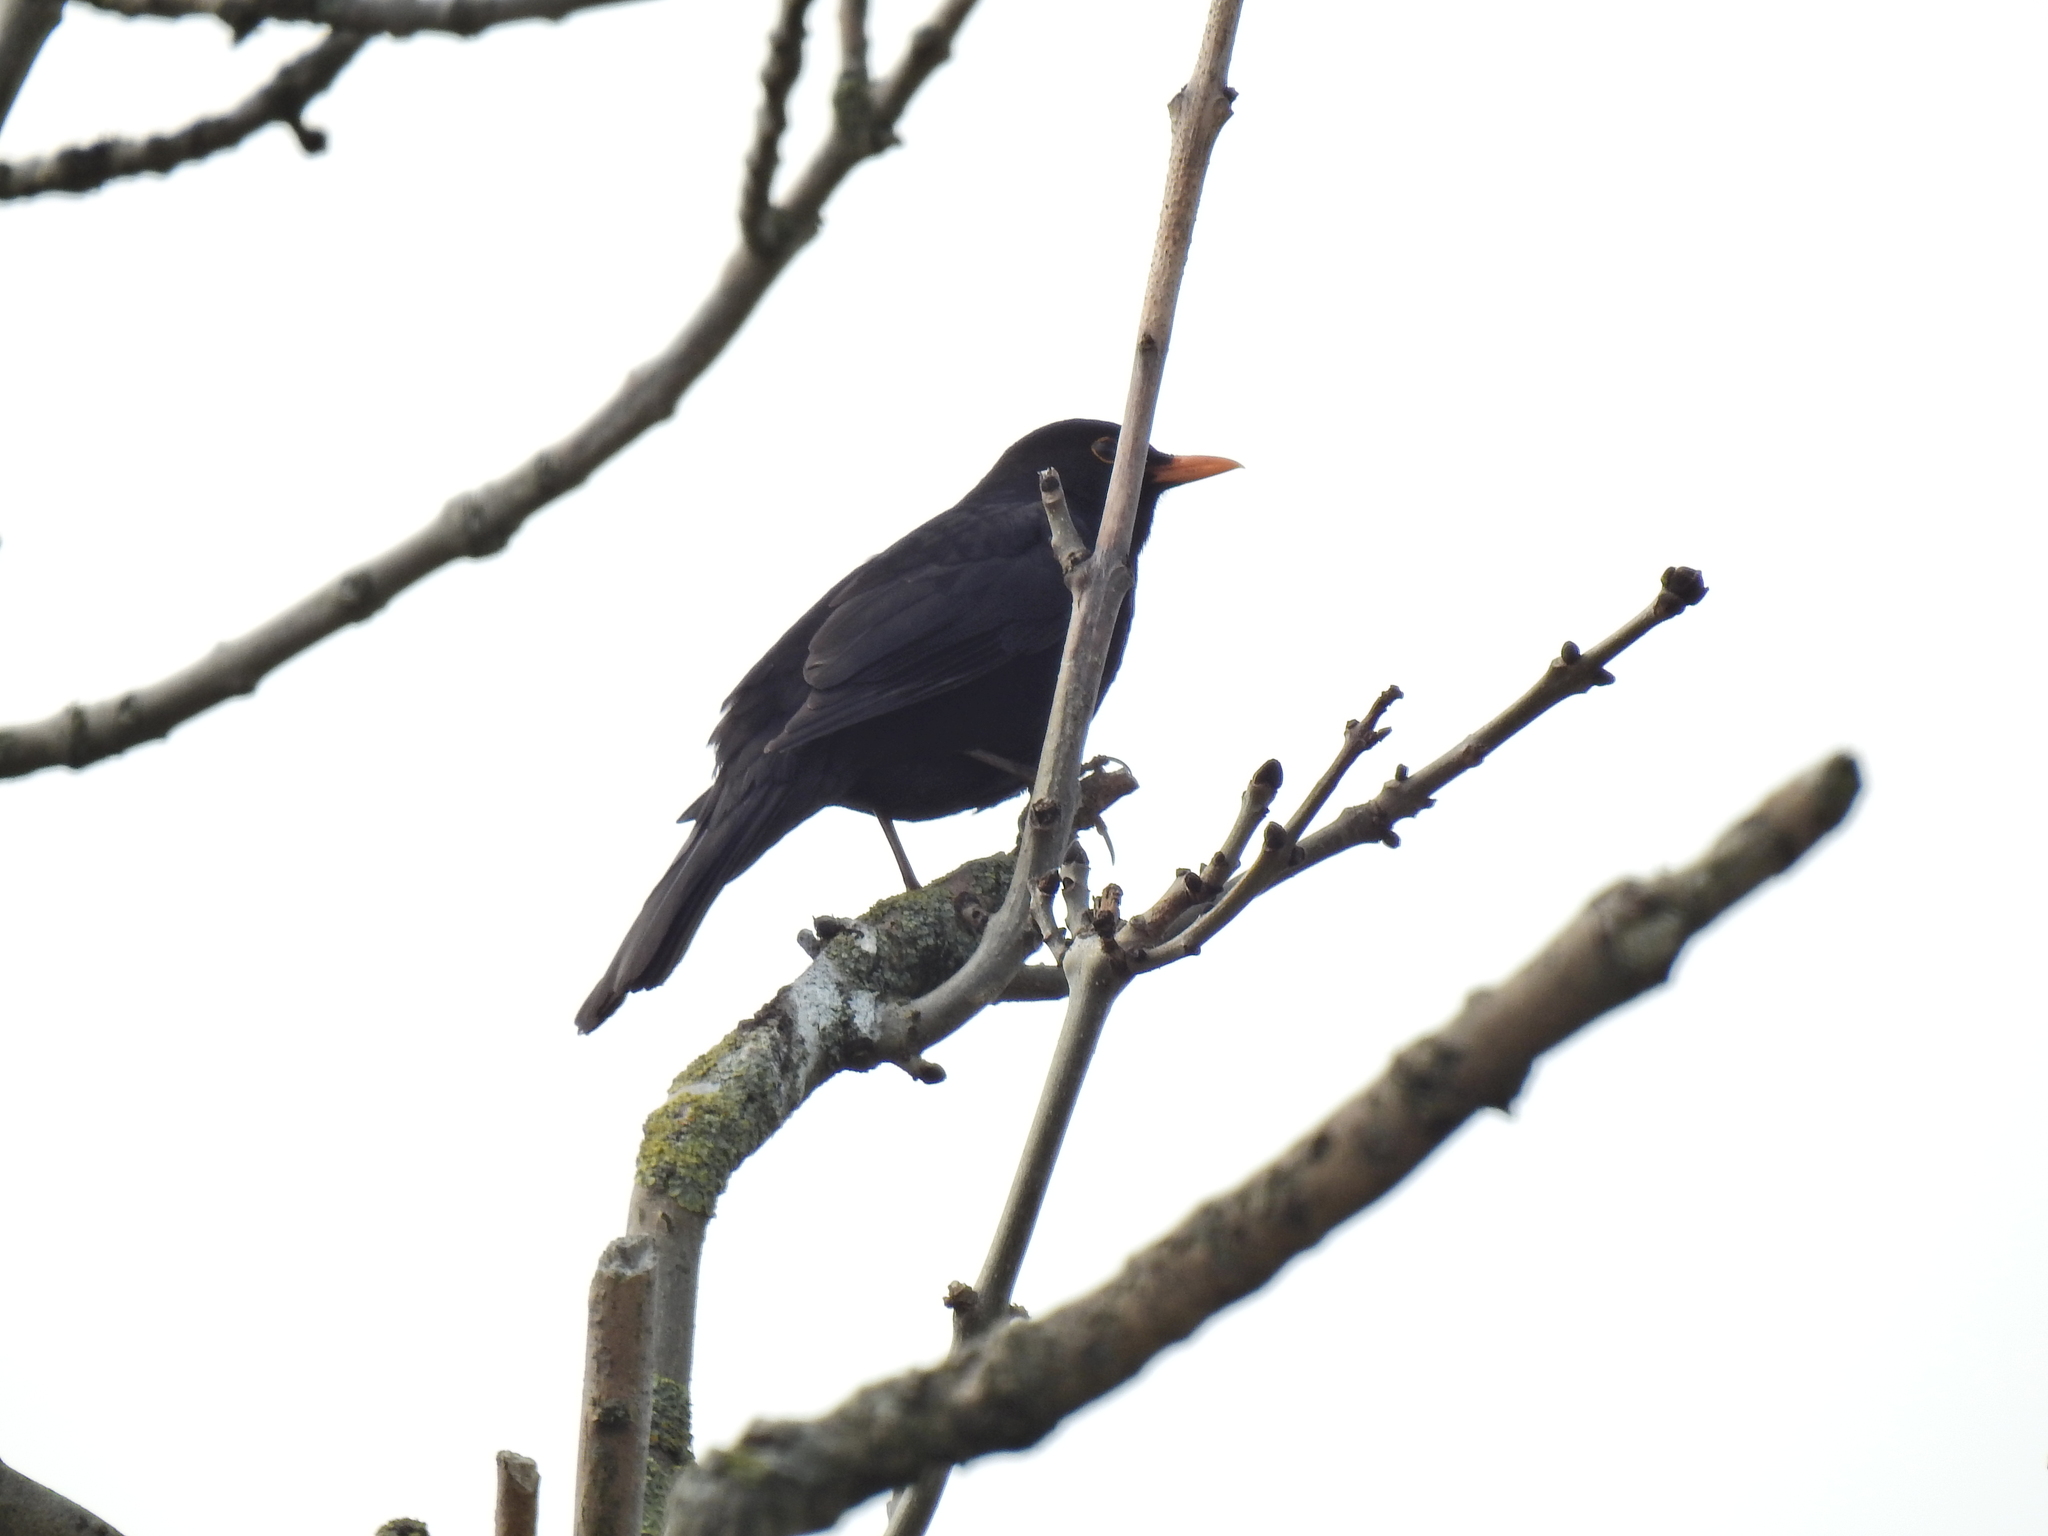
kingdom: Animalia
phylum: Chordata
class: Aves
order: Passeriformes
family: Turdidae
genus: Turdus
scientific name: Turdus merula
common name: Common blackbird
